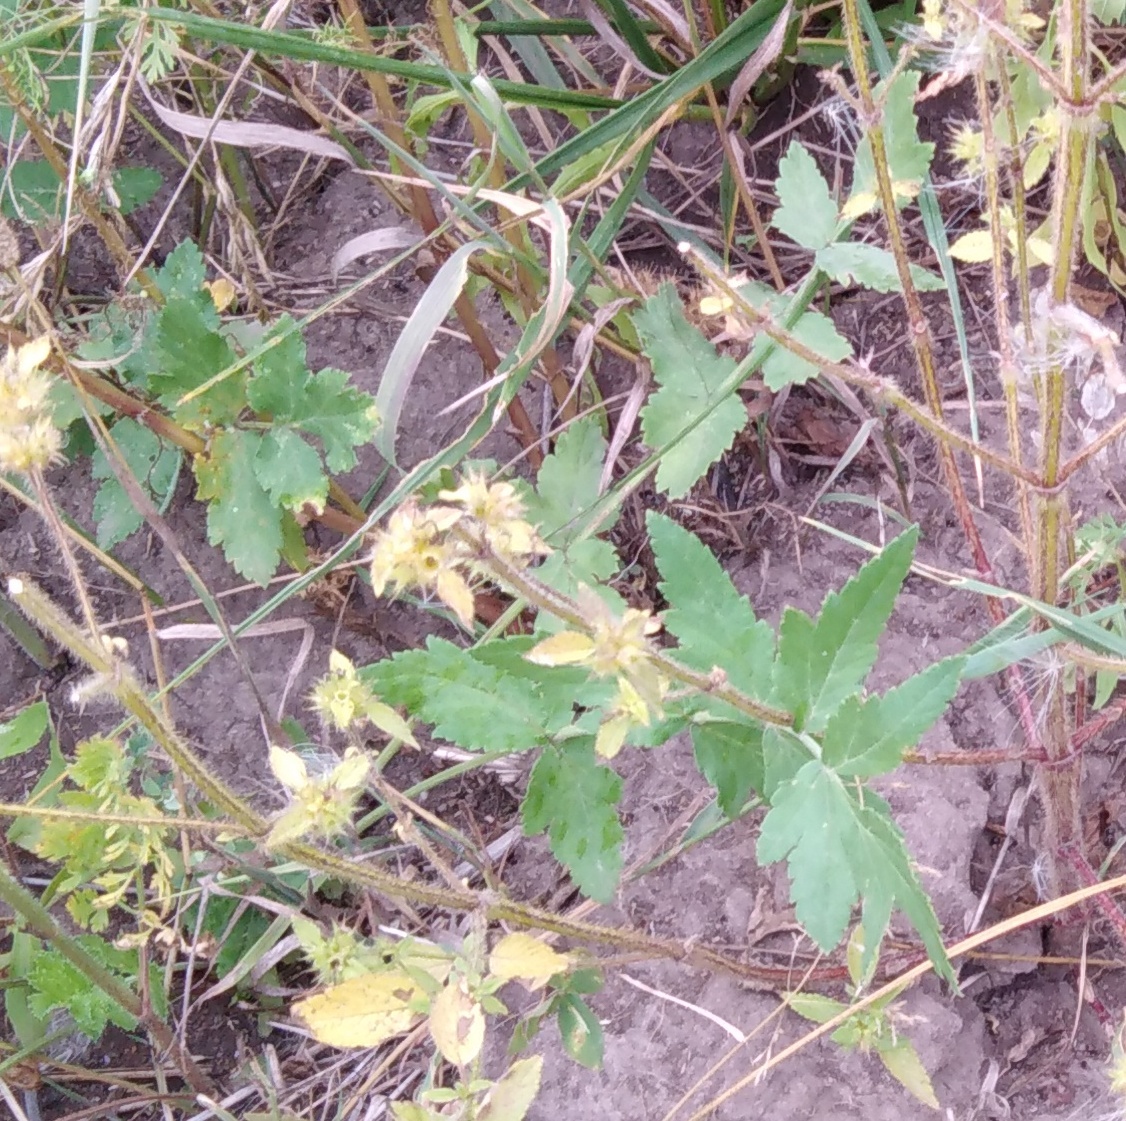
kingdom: Plantae
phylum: Tracheophyta
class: Magnoliopsida
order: Apiales
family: Apiaceae
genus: Pastinaca
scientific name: Pastinaca sativa
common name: Wild parsnip
